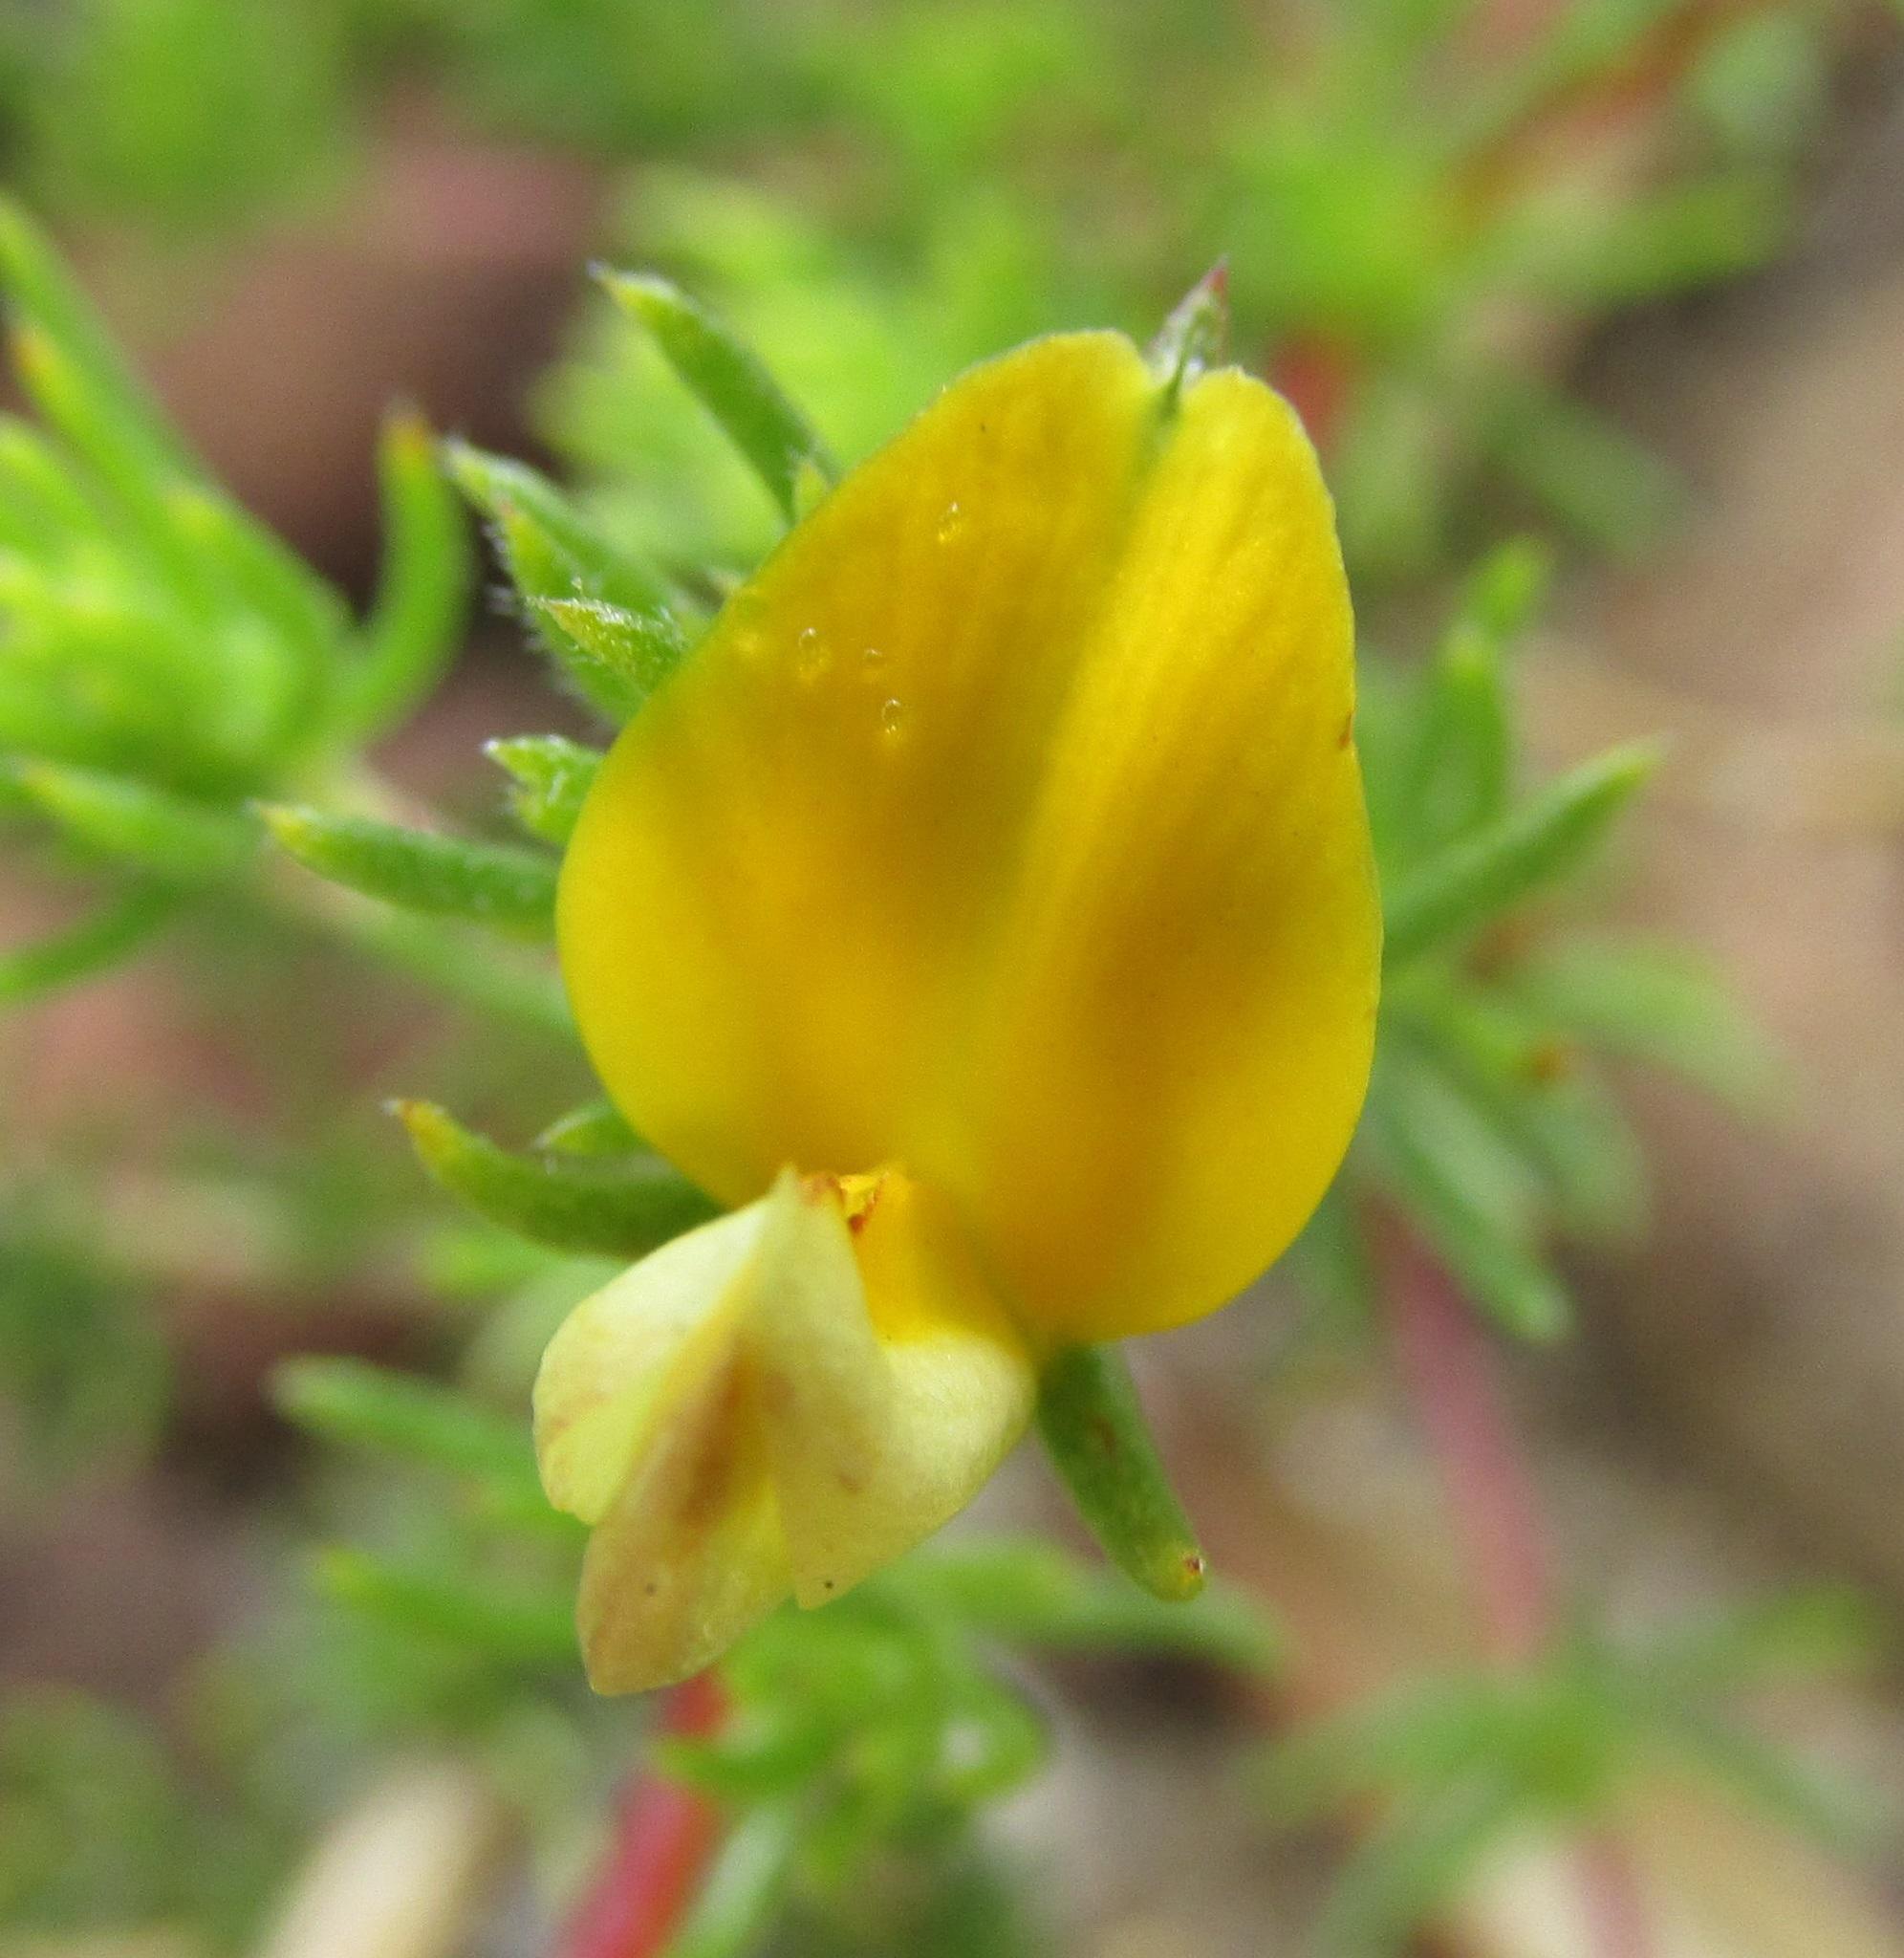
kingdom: Plantae
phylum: Tracheophyta
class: Magnoliopsida
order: Fabales
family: Fabaceae
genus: Aspalathus
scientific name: Aspalathus retroflexa
